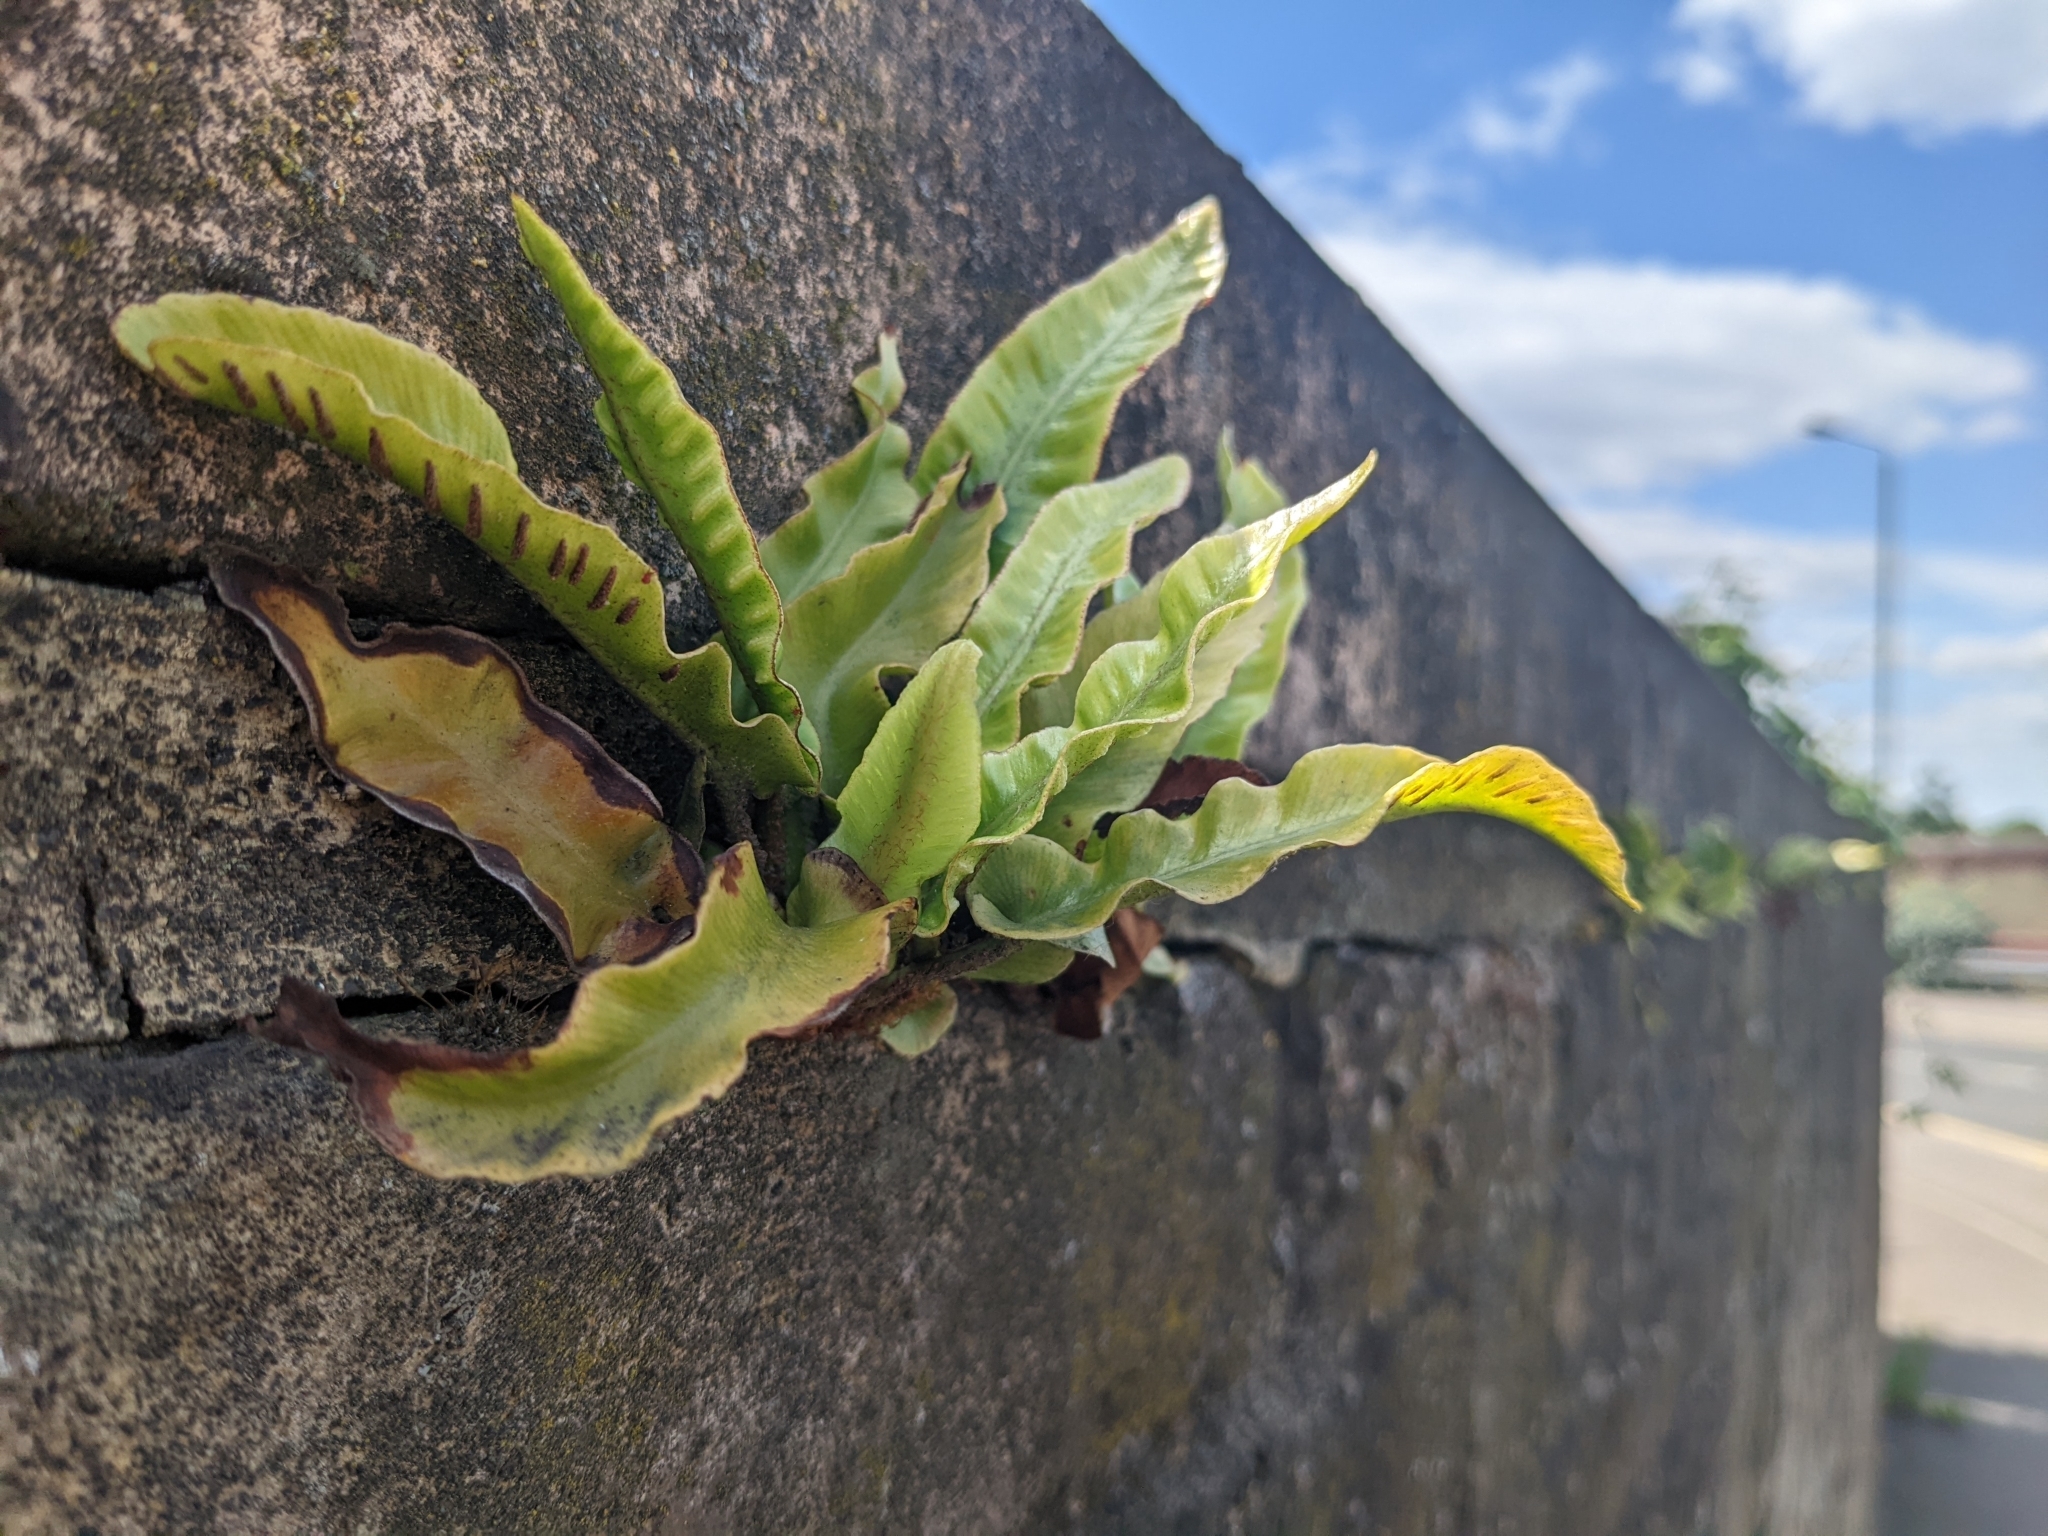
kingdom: Plantae
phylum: Tracheophyta
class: Polypodiopsida
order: Polypodiales
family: Aspleniaceae
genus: Asplenium
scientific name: Asplenium scolopendrium
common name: Hart's-tongue fern
